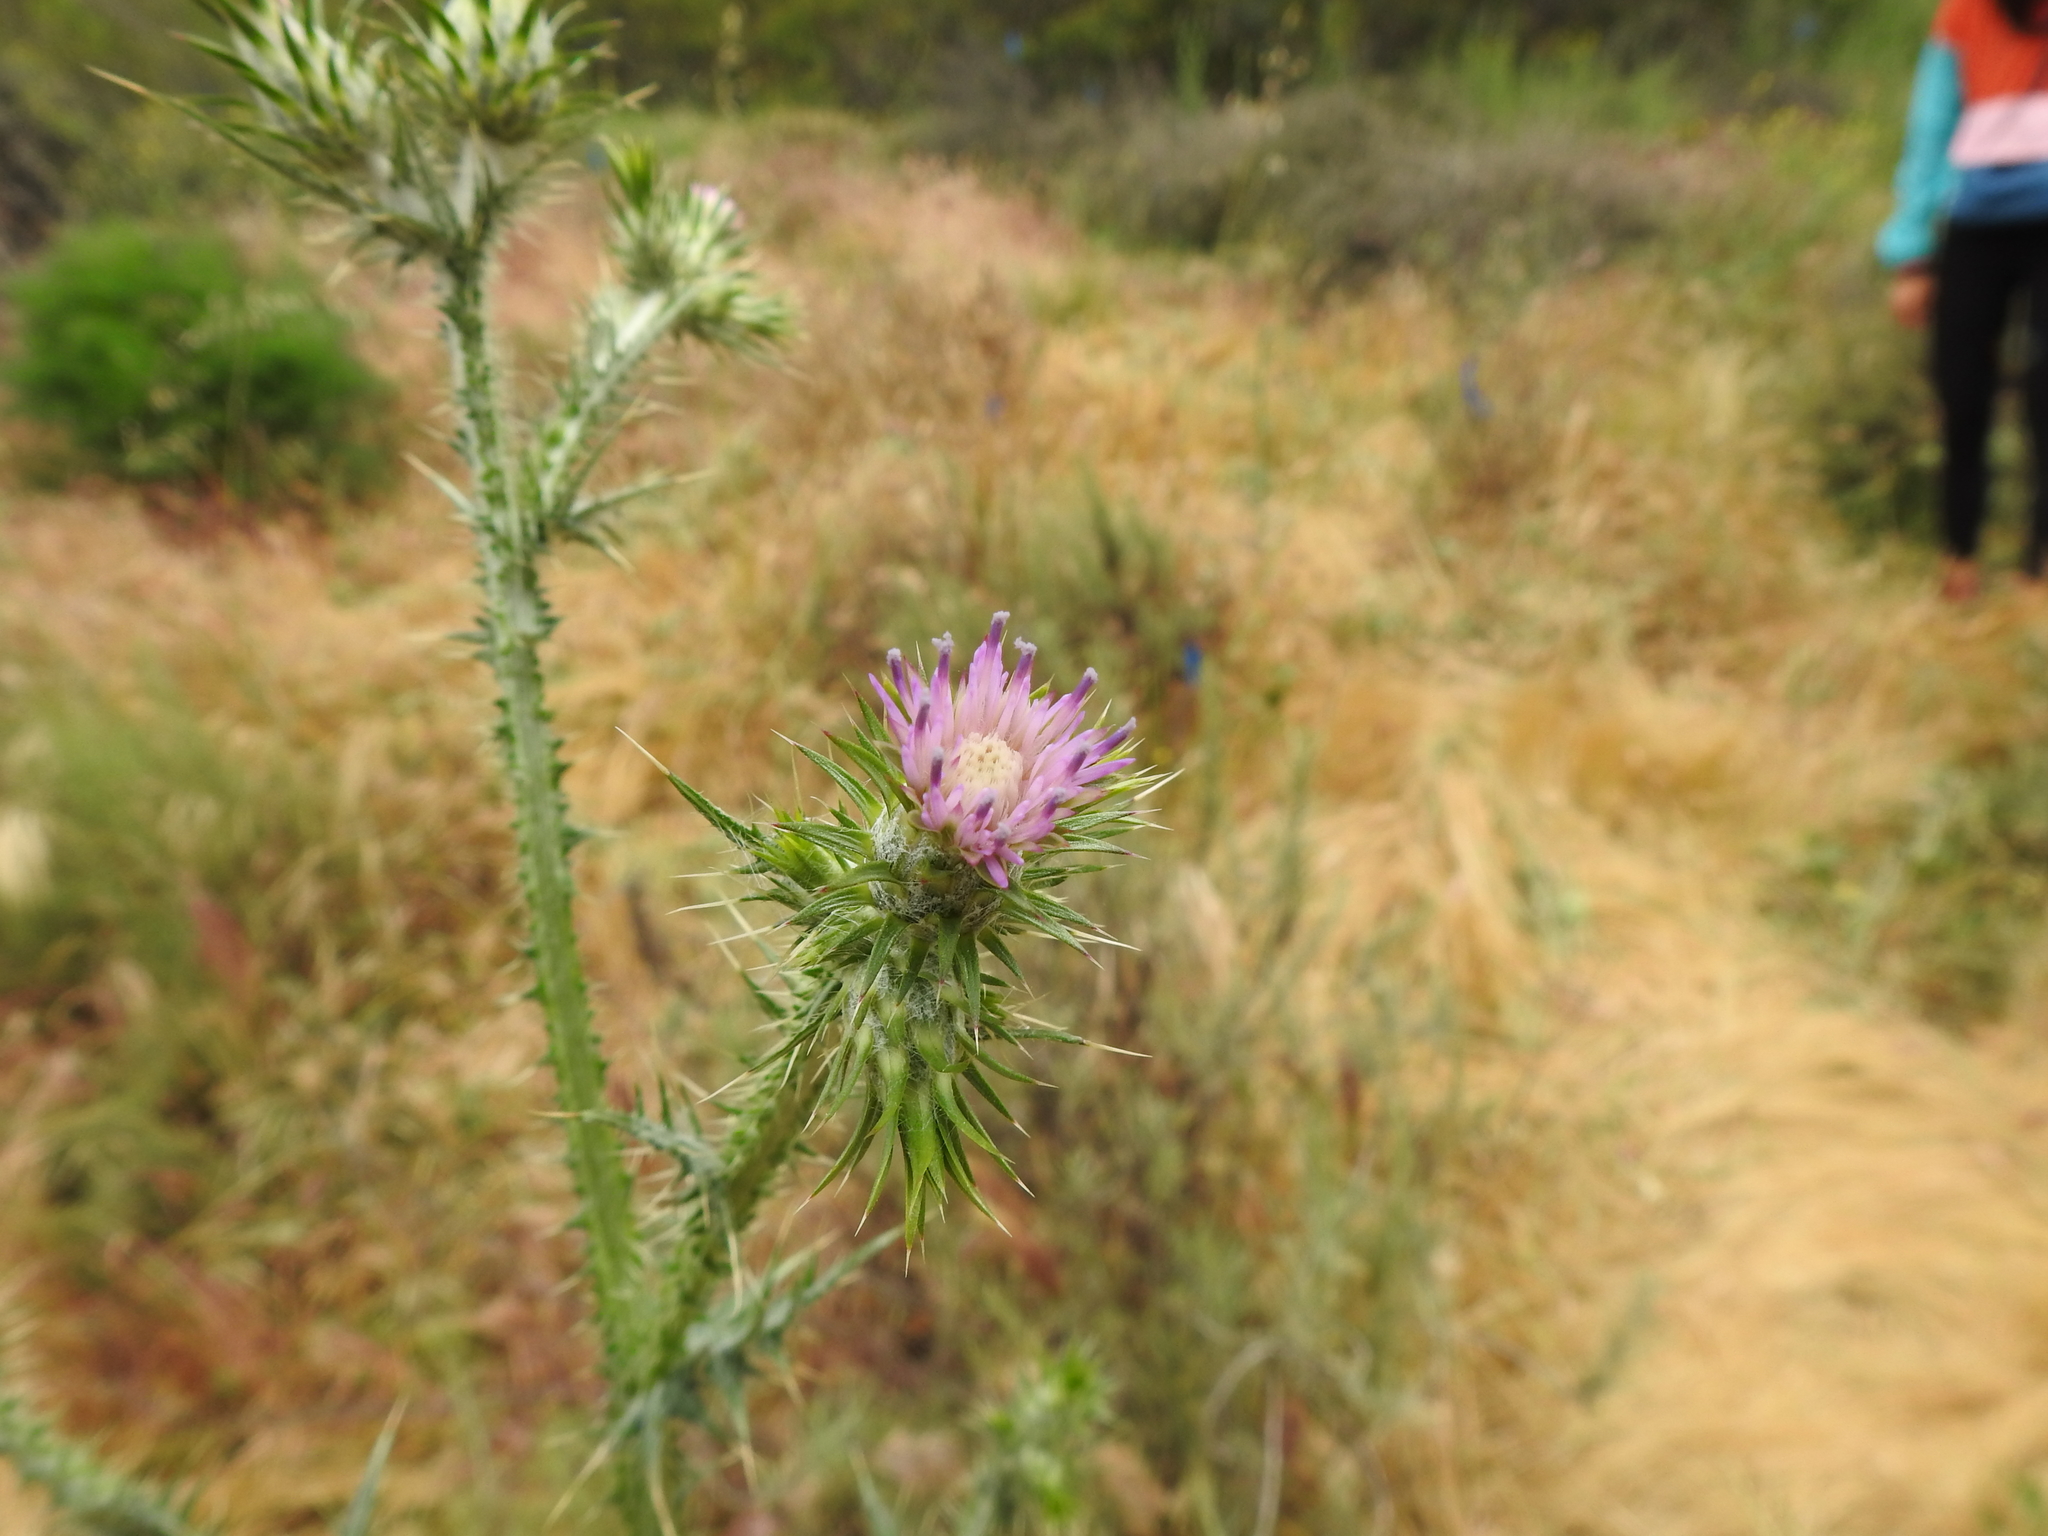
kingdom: Plantae
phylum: Tracheophyta
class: Magnoliopsida
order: Asterales
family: Asteraceae
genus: Carduus
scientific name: Carduus pycnocephalus
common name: Plymouth thistle
